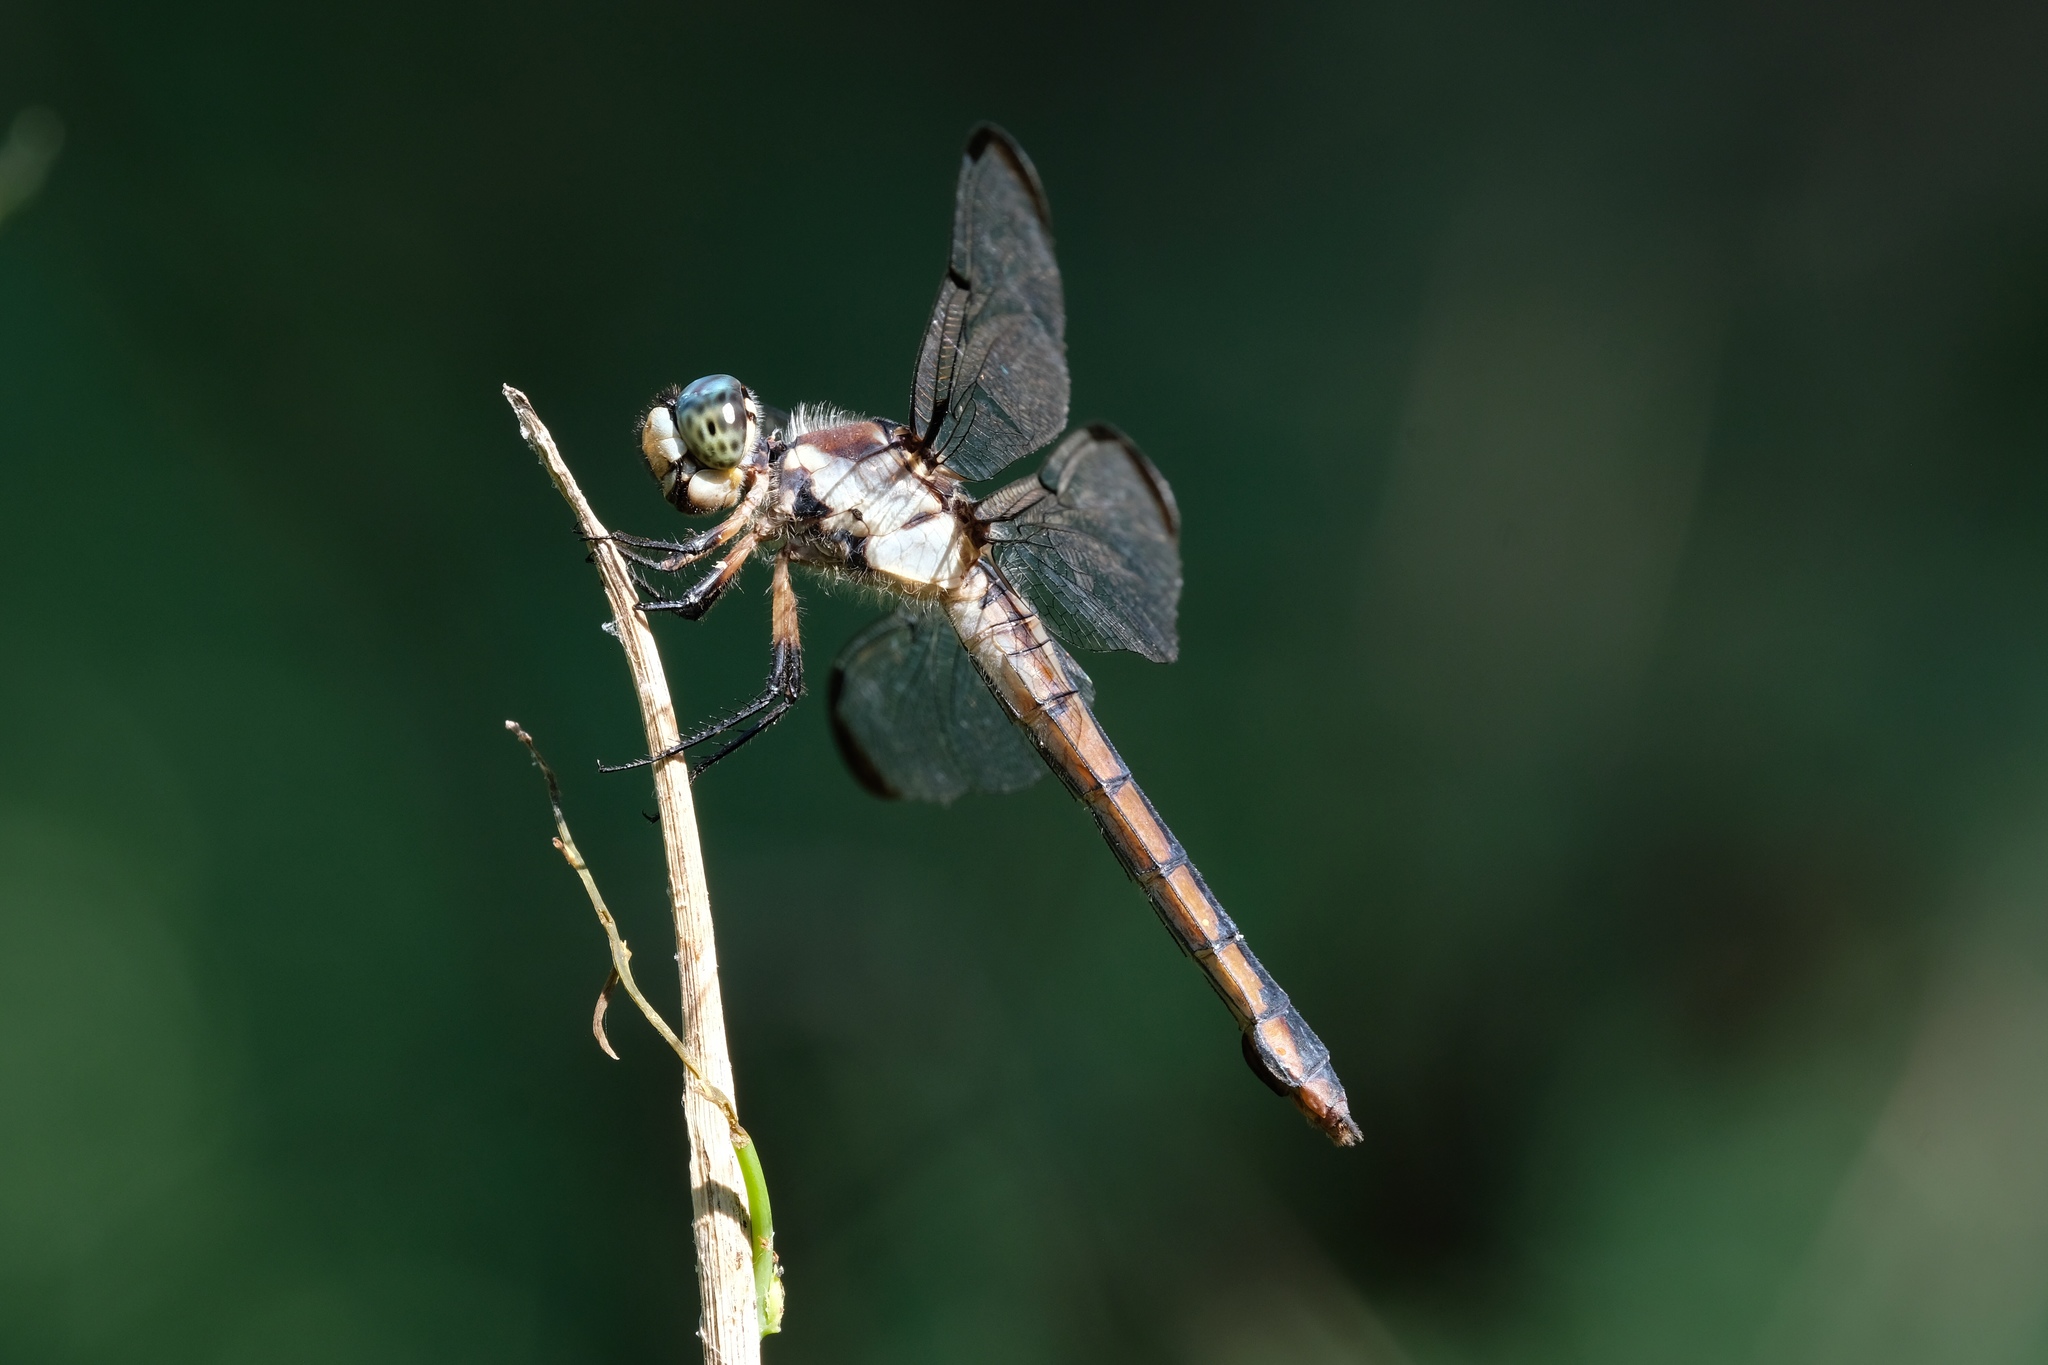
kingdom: Animalia
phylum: Arthropoda
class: Insecta
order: Odonata
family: Libellulidae
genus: Libellula
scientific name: Libellula vibrans
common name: Great blue skimmer
